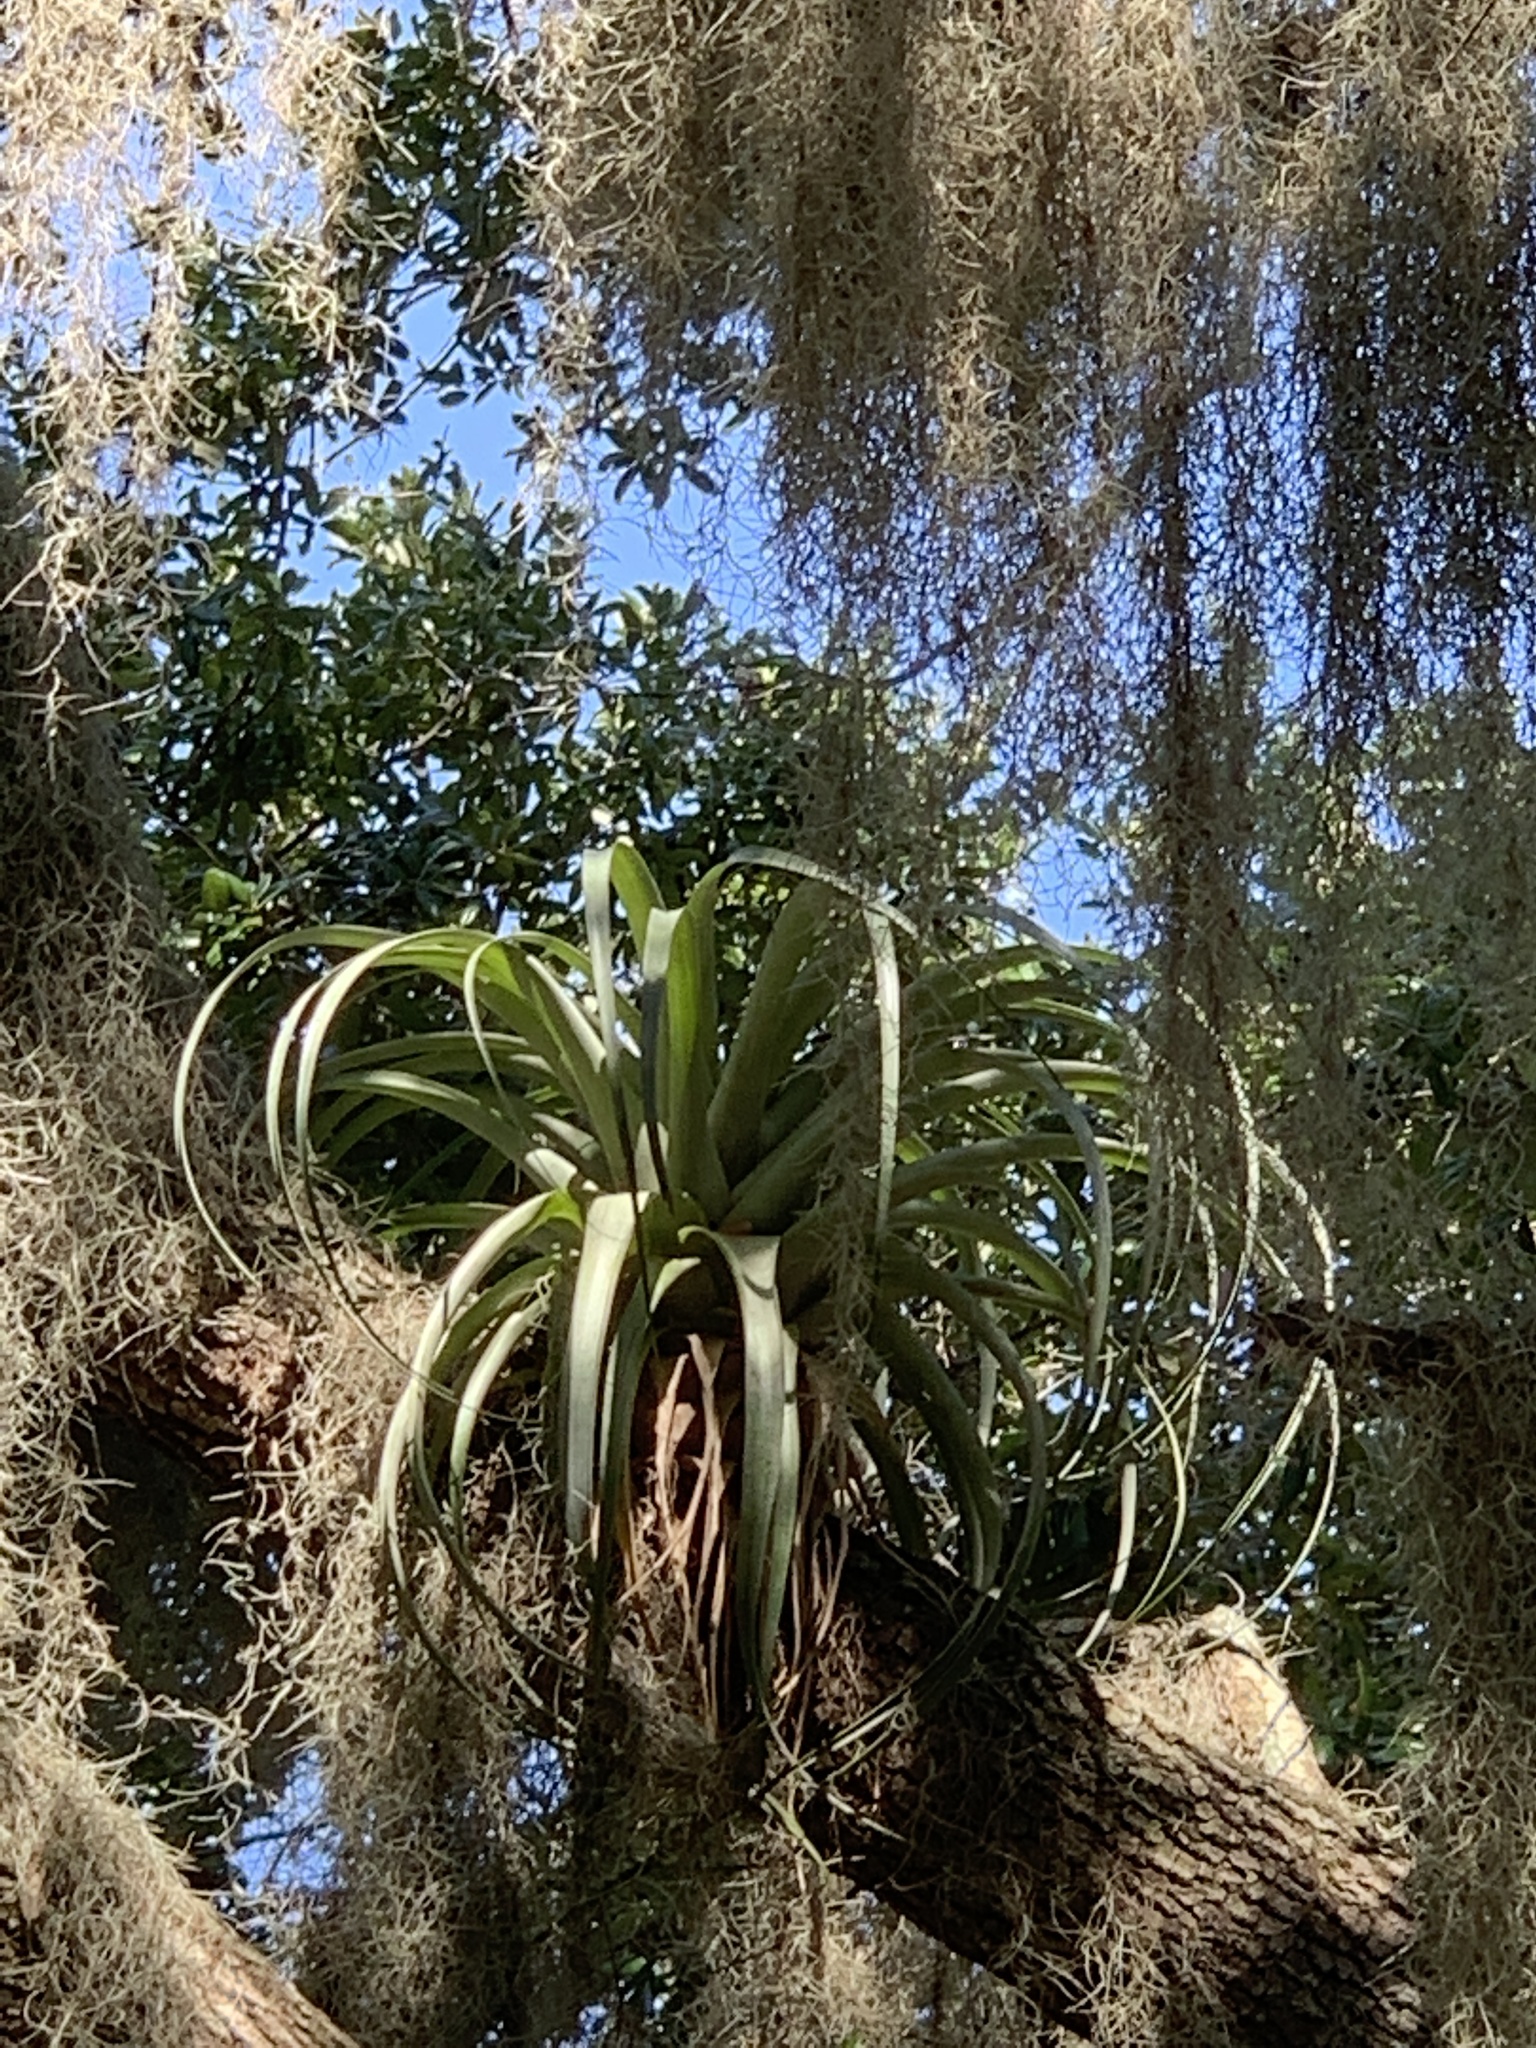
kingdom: Plantae
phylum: Tracheophyta
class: Liliopsida
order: Poales
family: Bromeliaceae
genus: Tillandsia
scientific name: Tillandsia utriculata
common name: Wild pine
